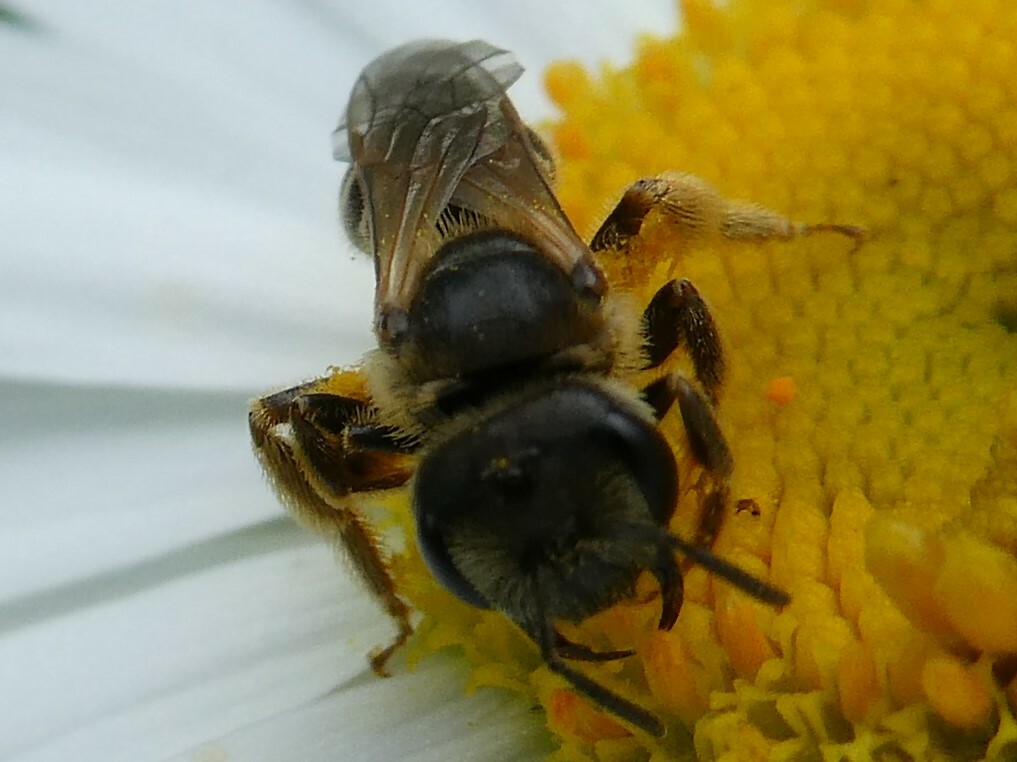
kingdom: Animalia
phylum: Arthropoda
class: Insecta
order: Hymenoptera
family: Halictidae
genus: Halictus
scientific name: Halictus ligatus
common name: Ligated furrow bee
